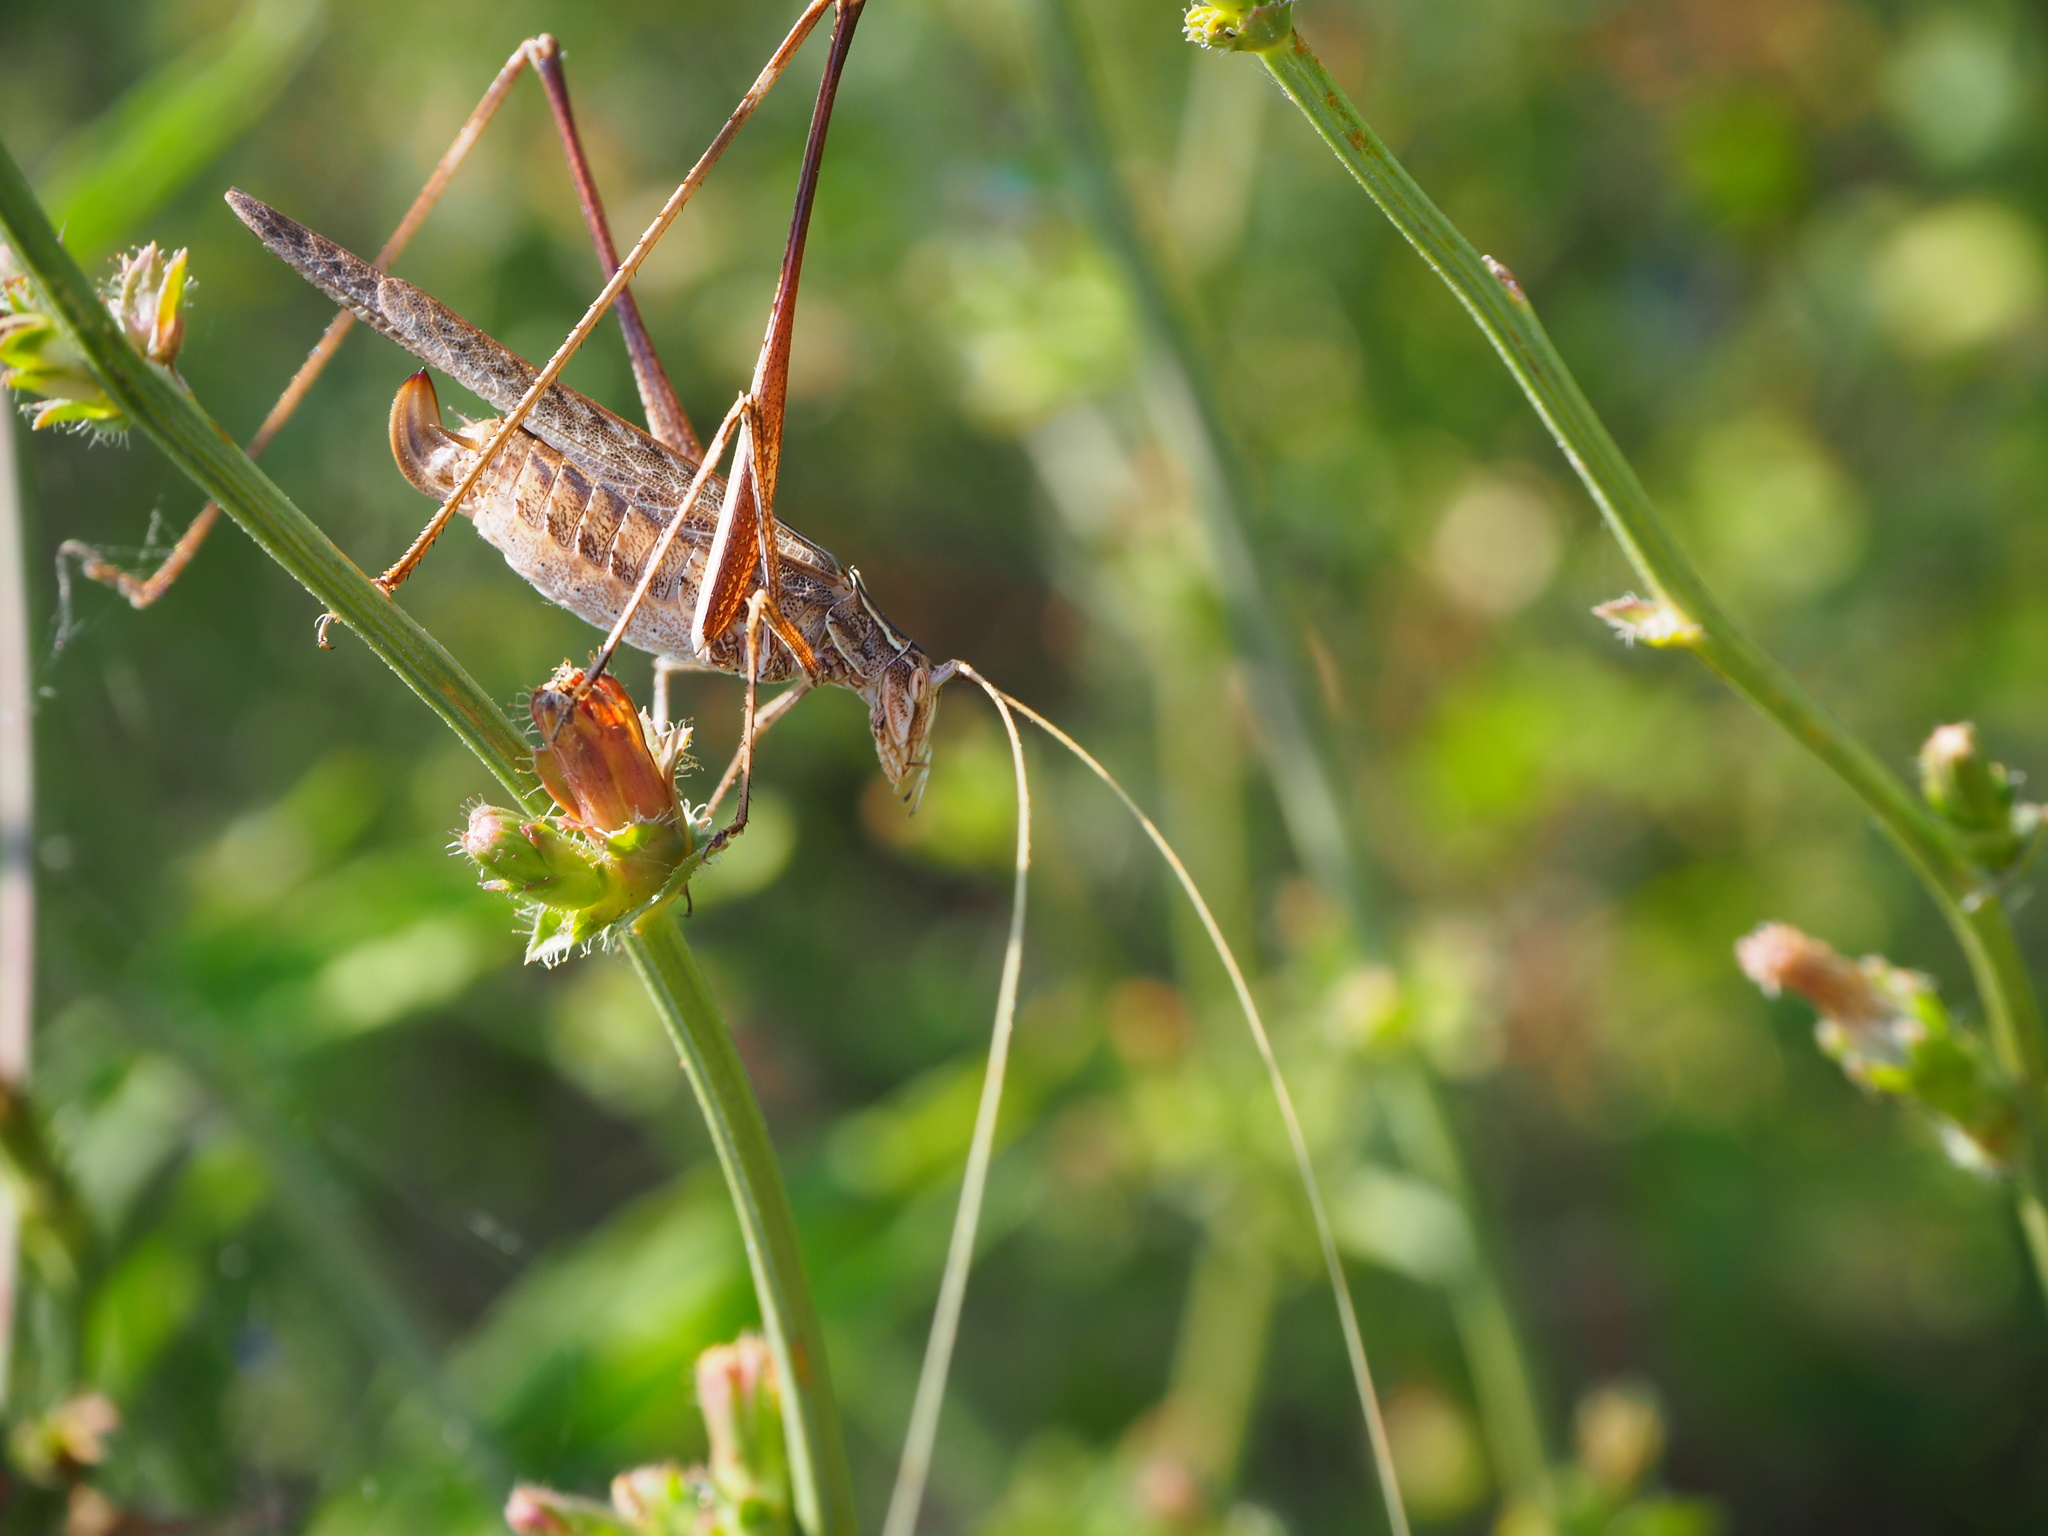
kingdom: Animalia
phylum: Arthropoda
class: Insecta
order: Orthoptera
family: Tettigoniidae
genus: Tylopsis
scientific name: Tylopsis lilifolia
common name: Lily bush-cricket
